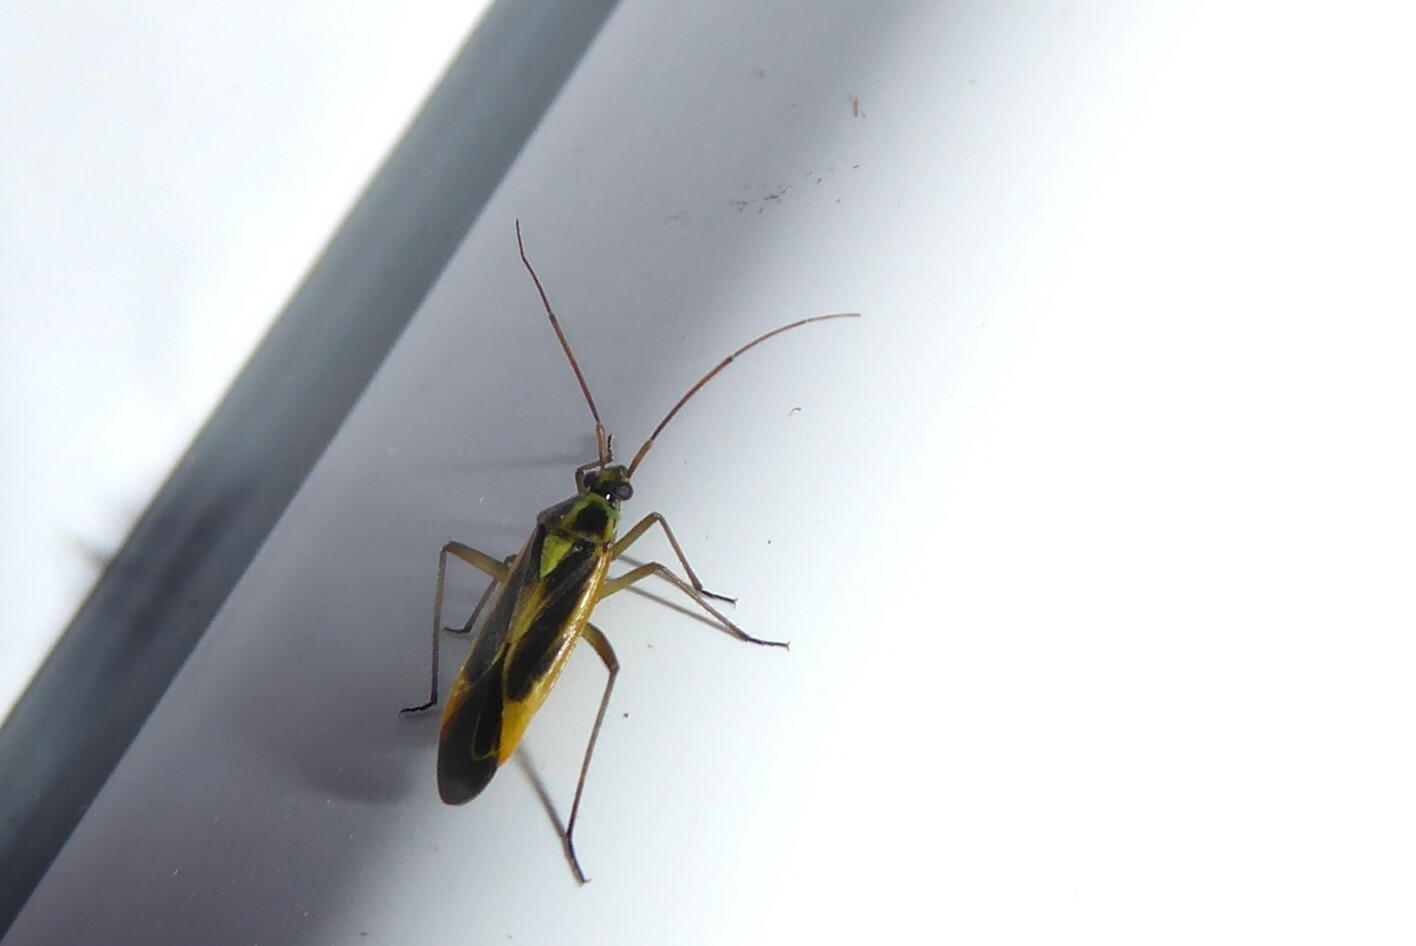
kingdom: Animalia
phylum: Arthropoda
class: Insecta
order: Hemiptera
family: Miridae
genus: Stenotus
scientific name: Stenotus binotatus
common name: Plant bug
